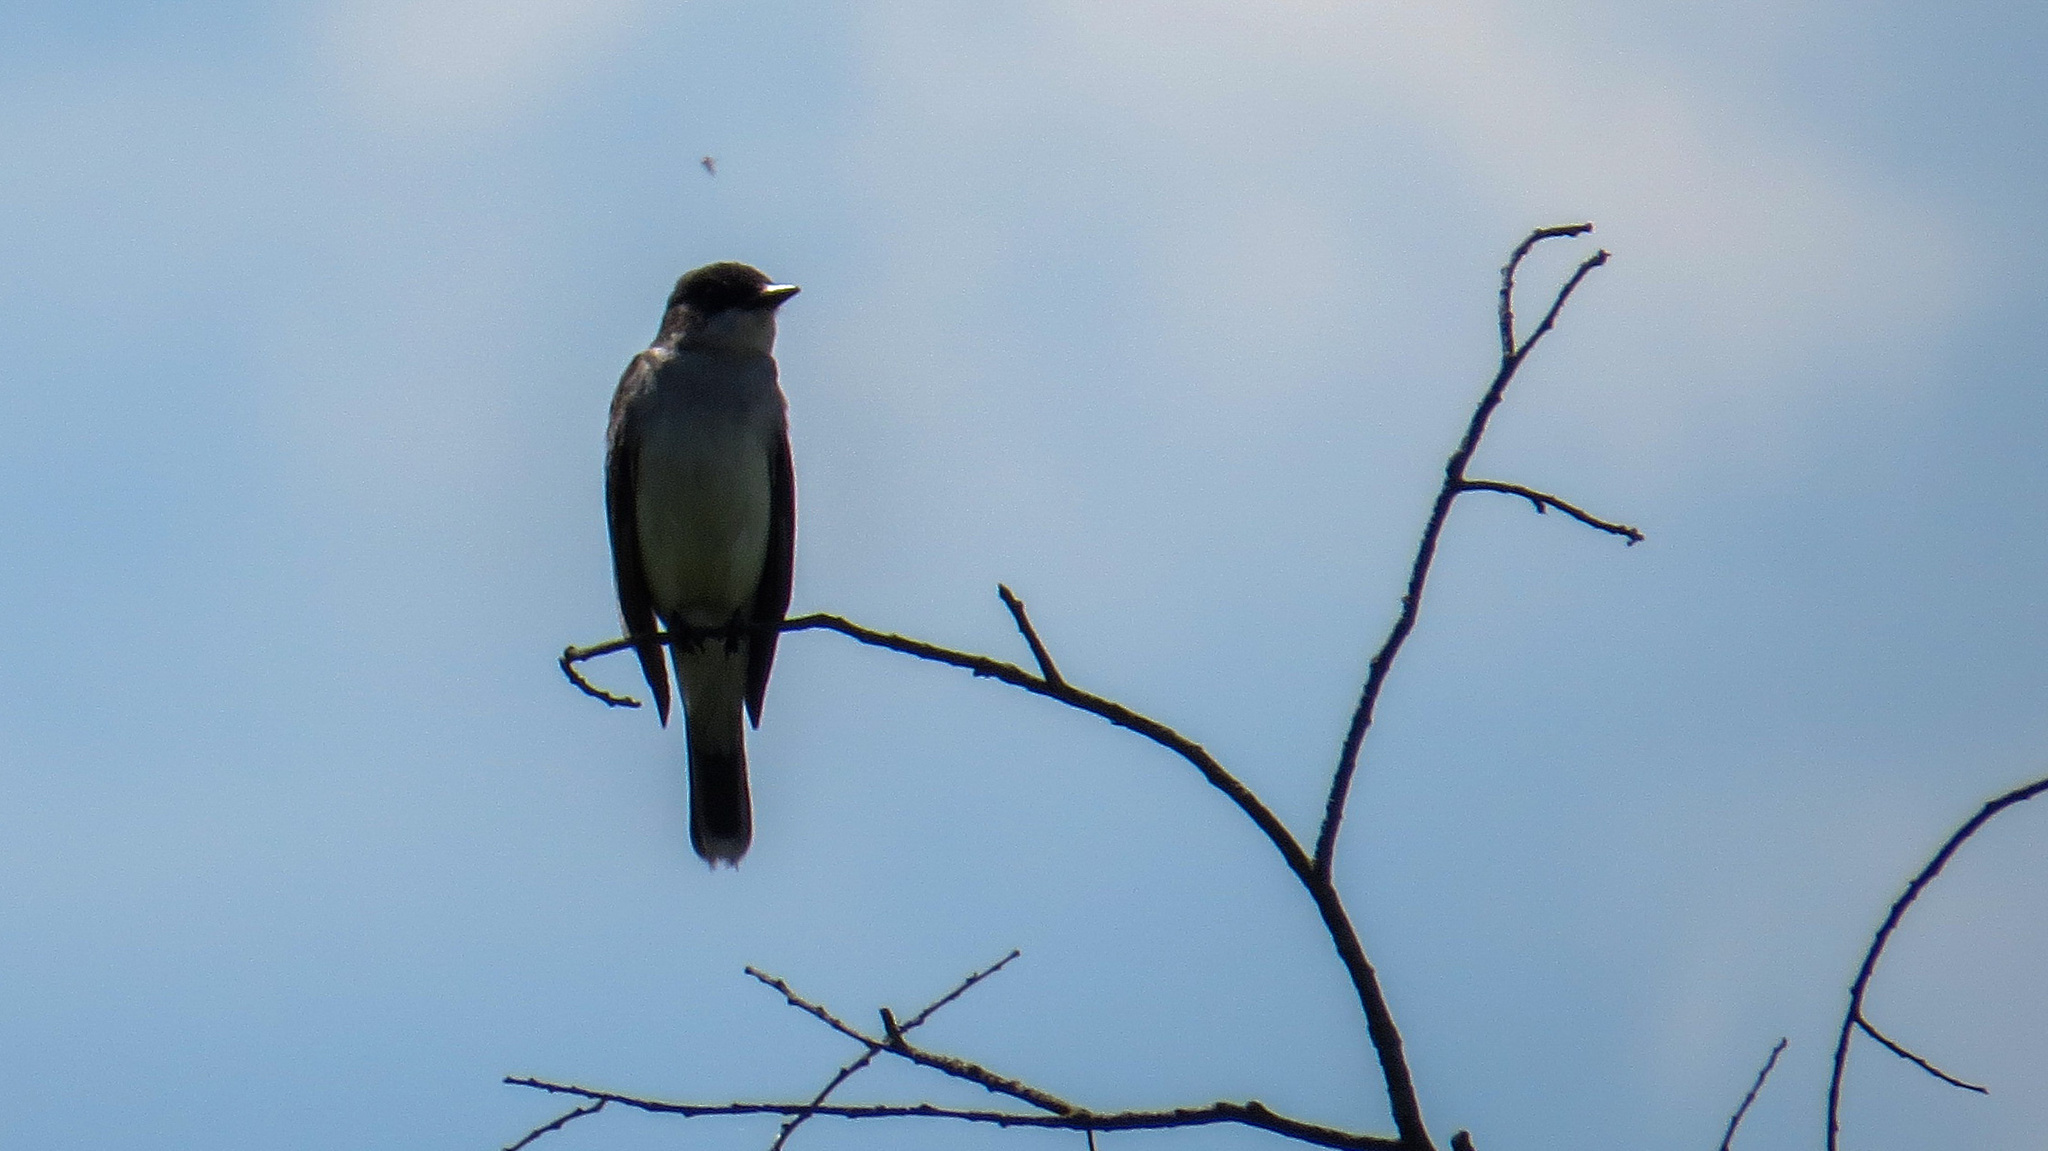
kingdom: Animalia
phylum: Chordata
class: Aves
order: Passeriformes
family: Tyrannidae
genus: Tyrannus
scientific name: Tyrannus tyrannus
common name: Eastern kingbird
